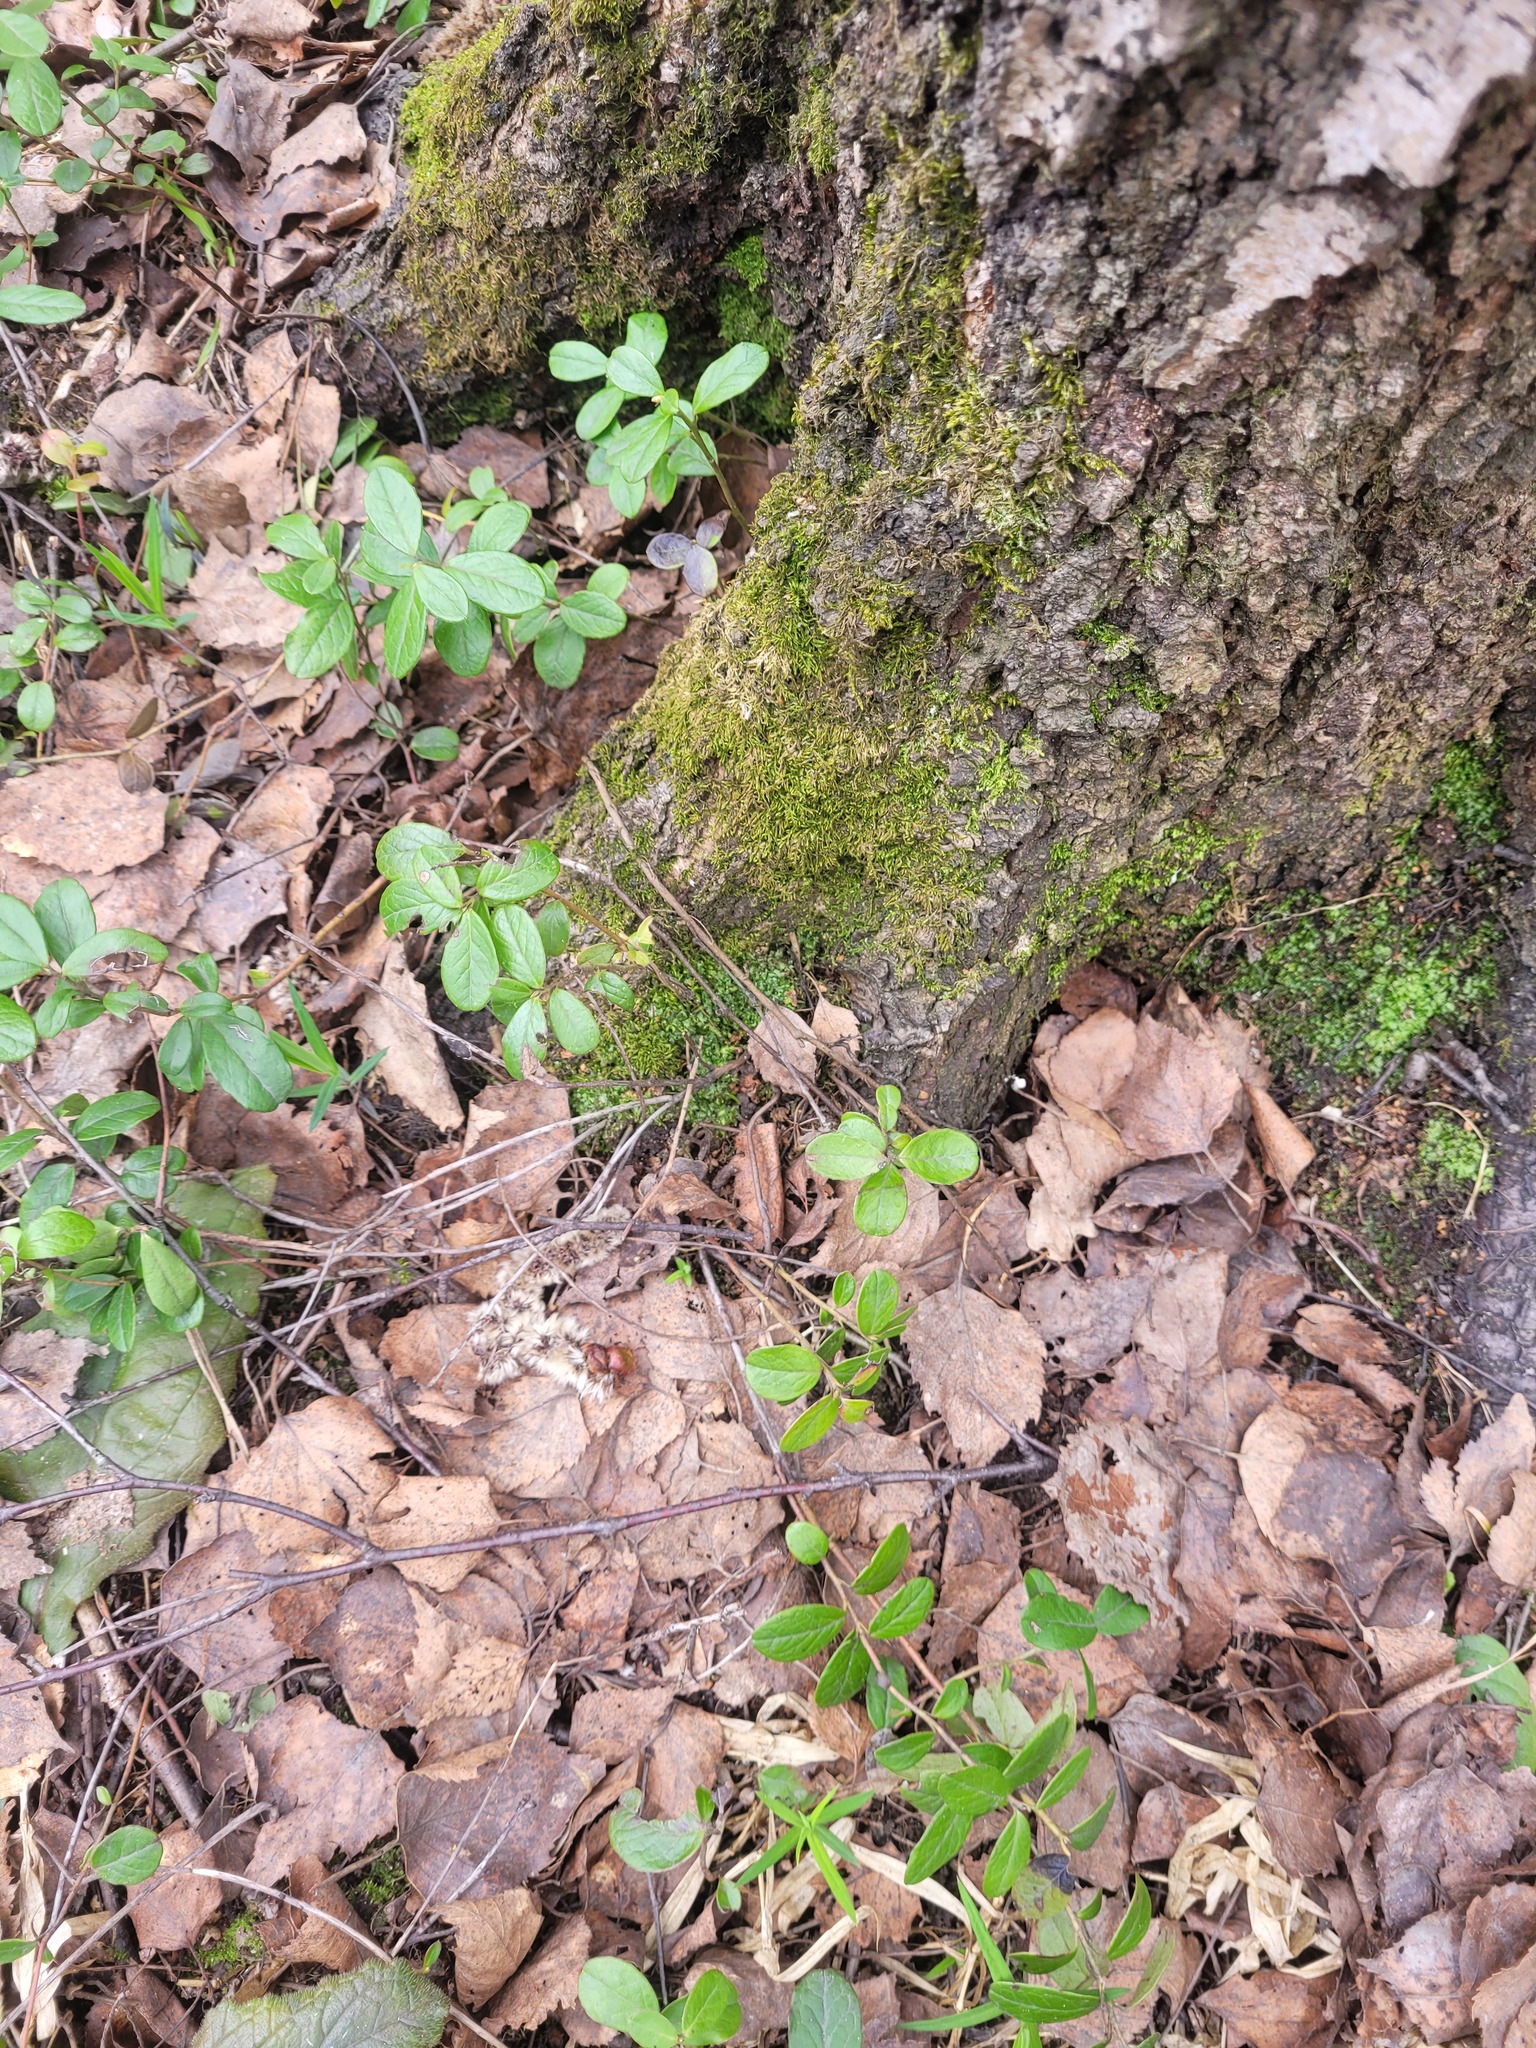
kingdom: Plantae
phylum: Tracheophyta
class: Magnoliopsida
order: Ericales
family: Ericaceae
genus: Vaccinium
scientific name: Vaccinium vitis-idaea
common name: Cowberry
